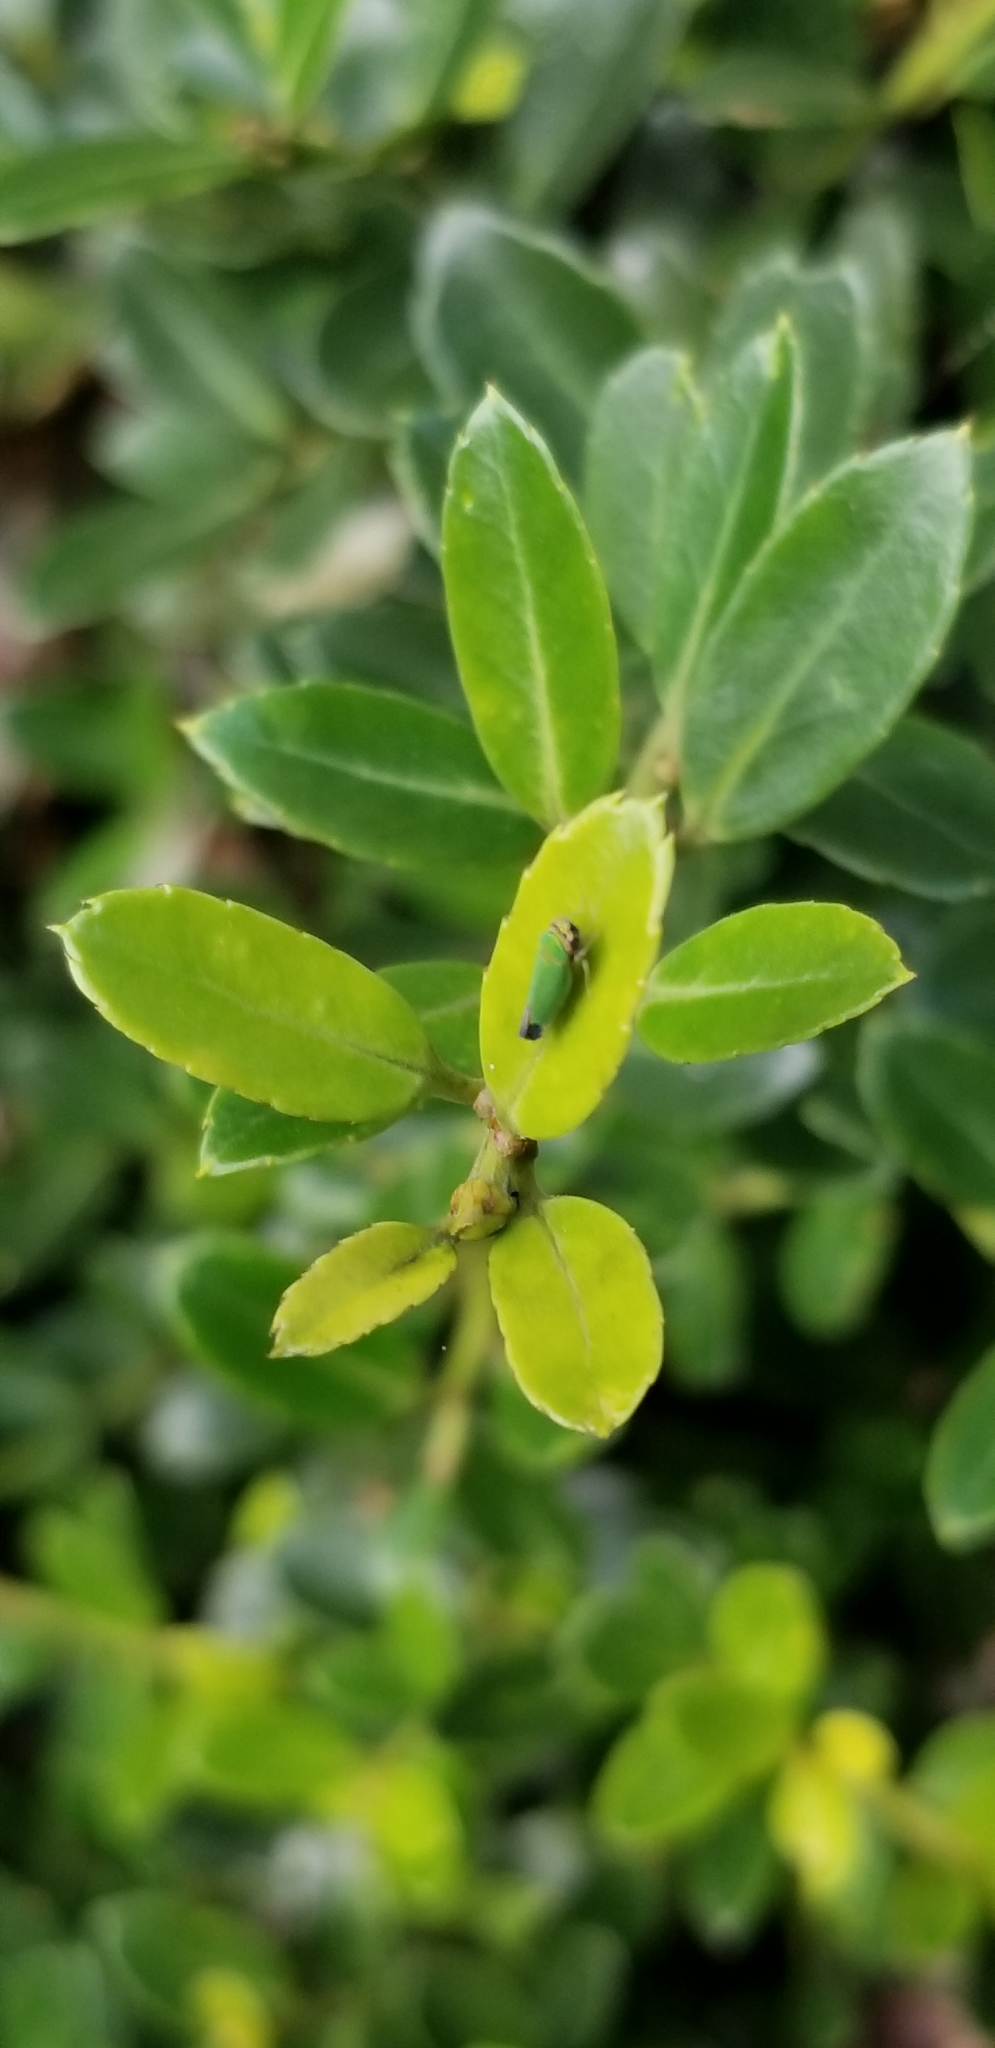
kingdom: Animalia
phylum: Arthropoda
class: Insecta
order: Hemiptera
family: Cicadellidae
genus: Tylozygus
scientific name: Tylozygus geometricus
